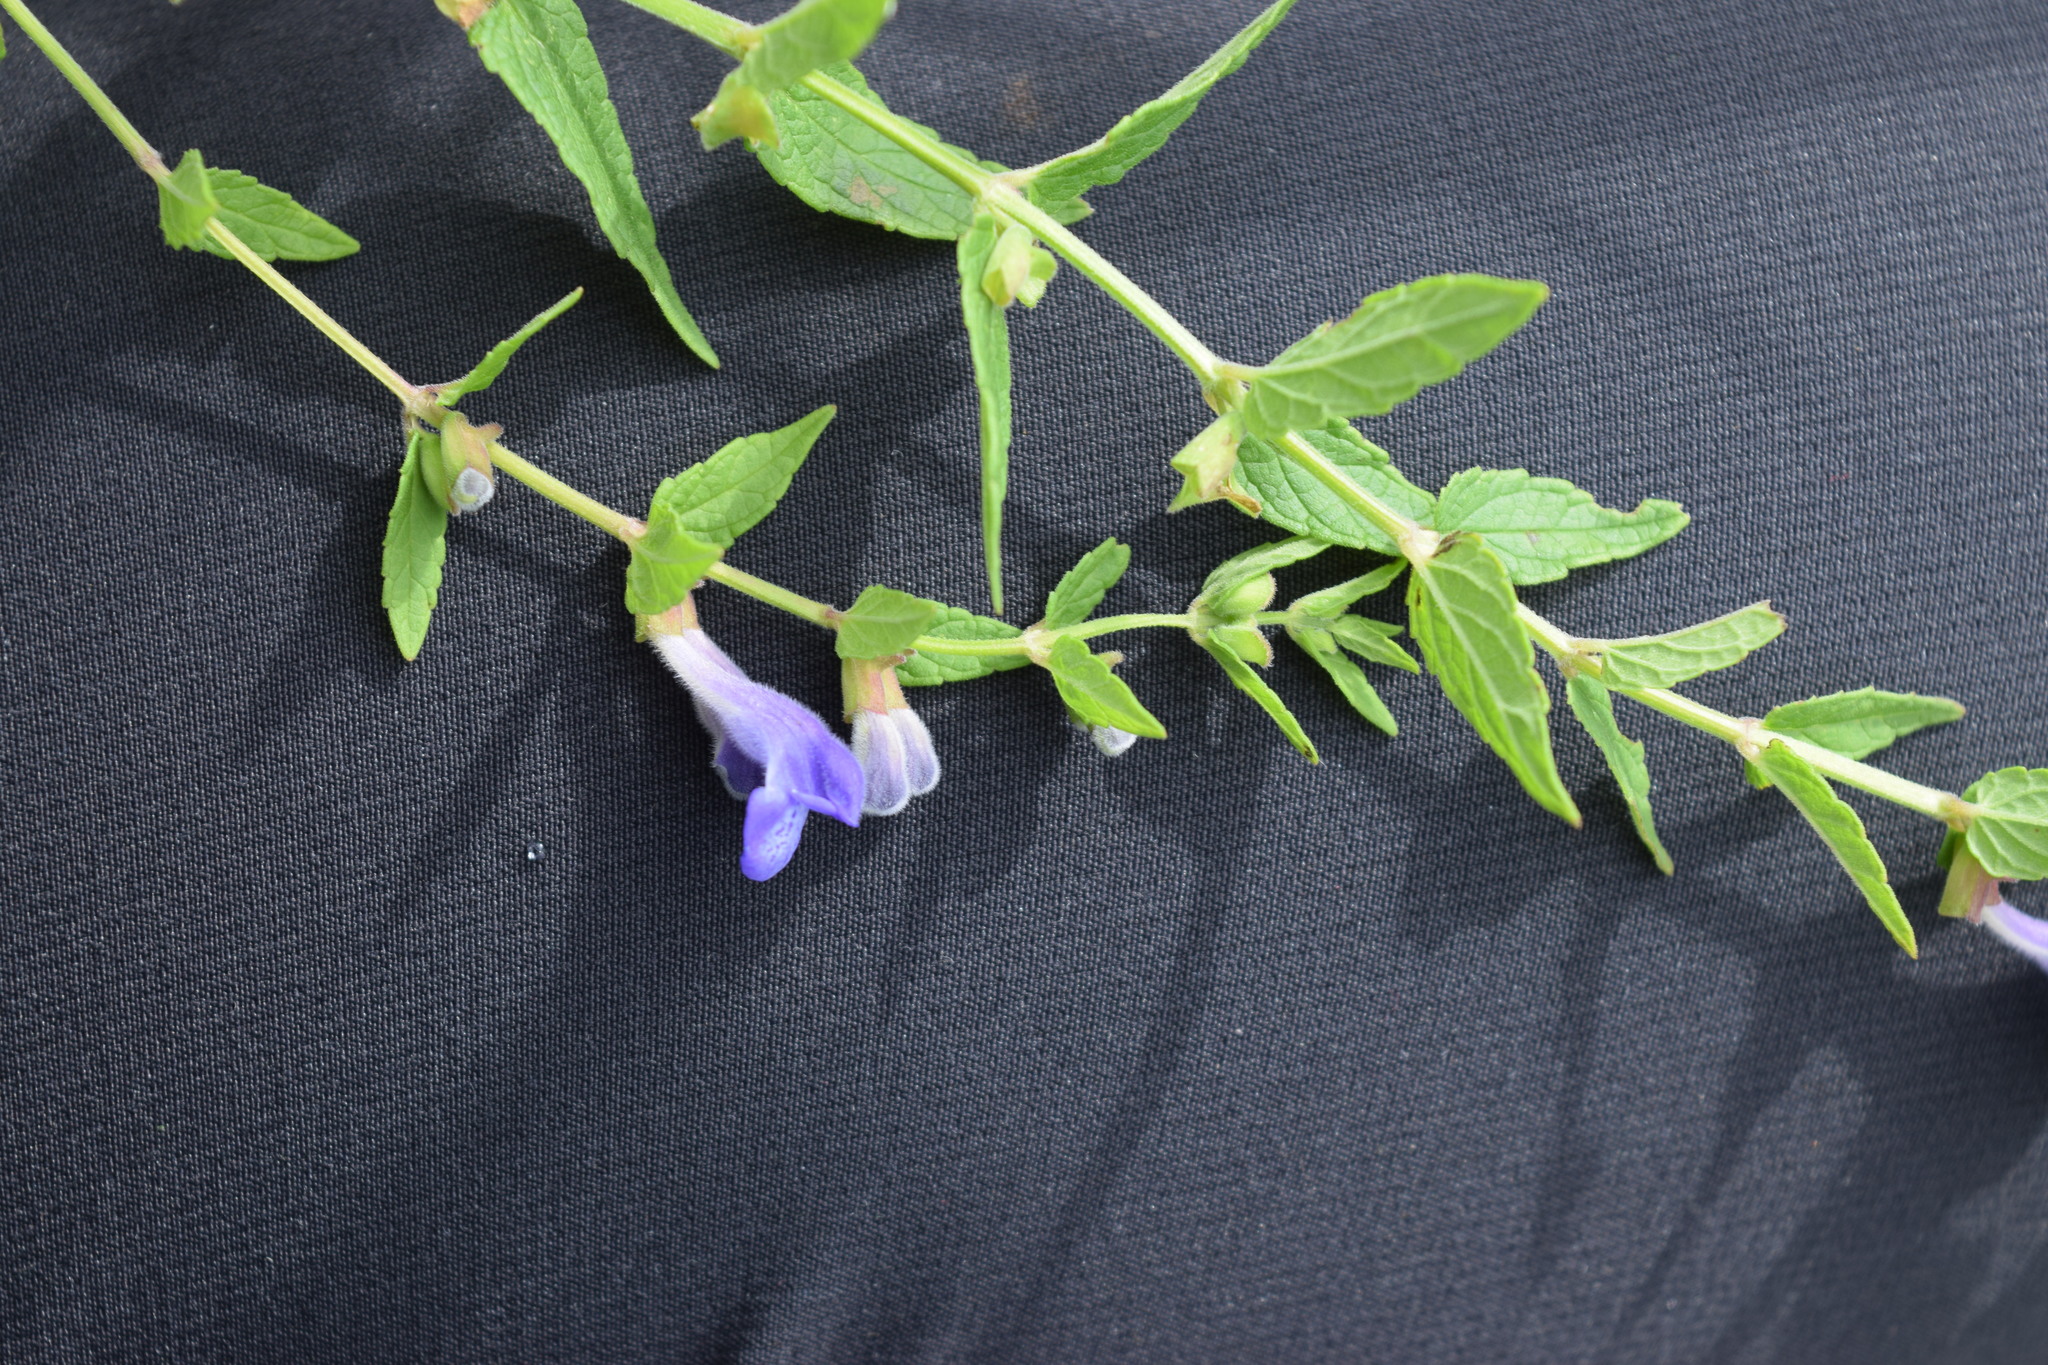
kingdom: Plantae
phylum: Tracheophyta
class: Magnoliopsida
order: Lamiales
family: Lamiaceae
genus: Scutellaria
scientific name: Scutellaria galericulata
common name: Skullcap
